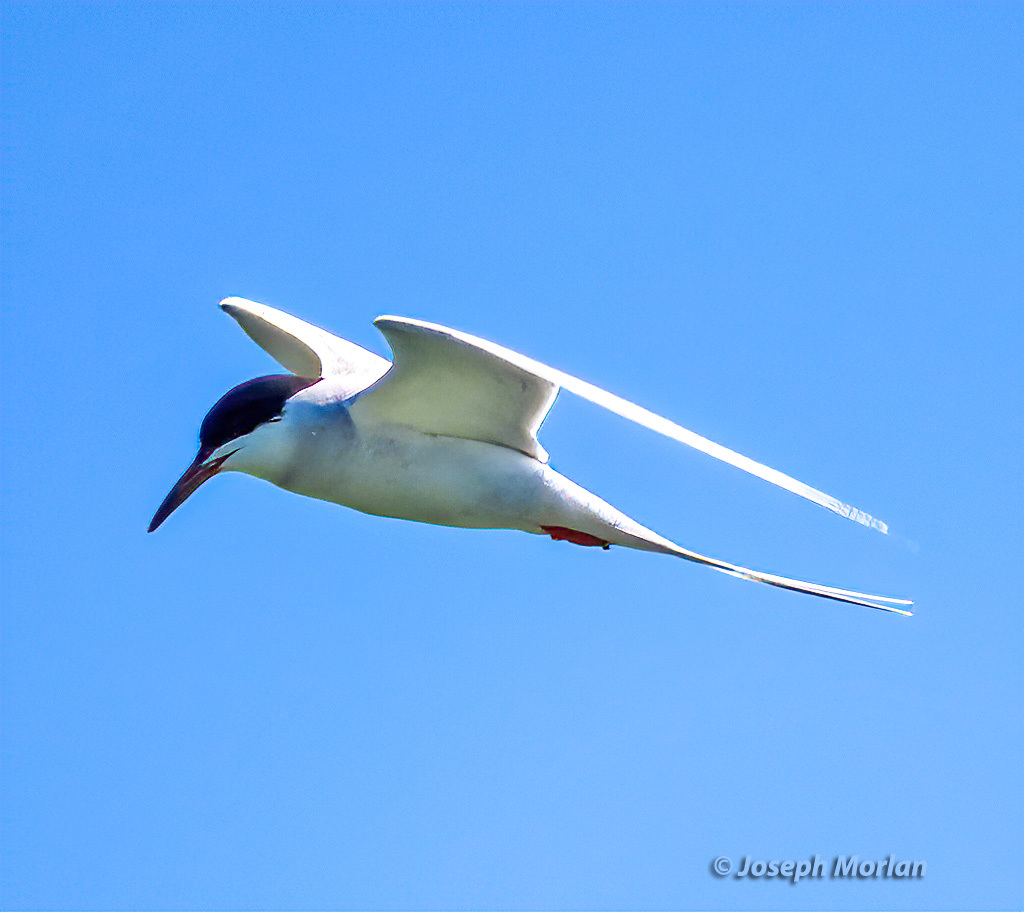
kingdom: Animalia
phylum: Chordata
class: Aves
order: Charadriiformes
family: Laridae
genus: Sterna
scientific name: Sterna forsteri
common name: Forster's tern
